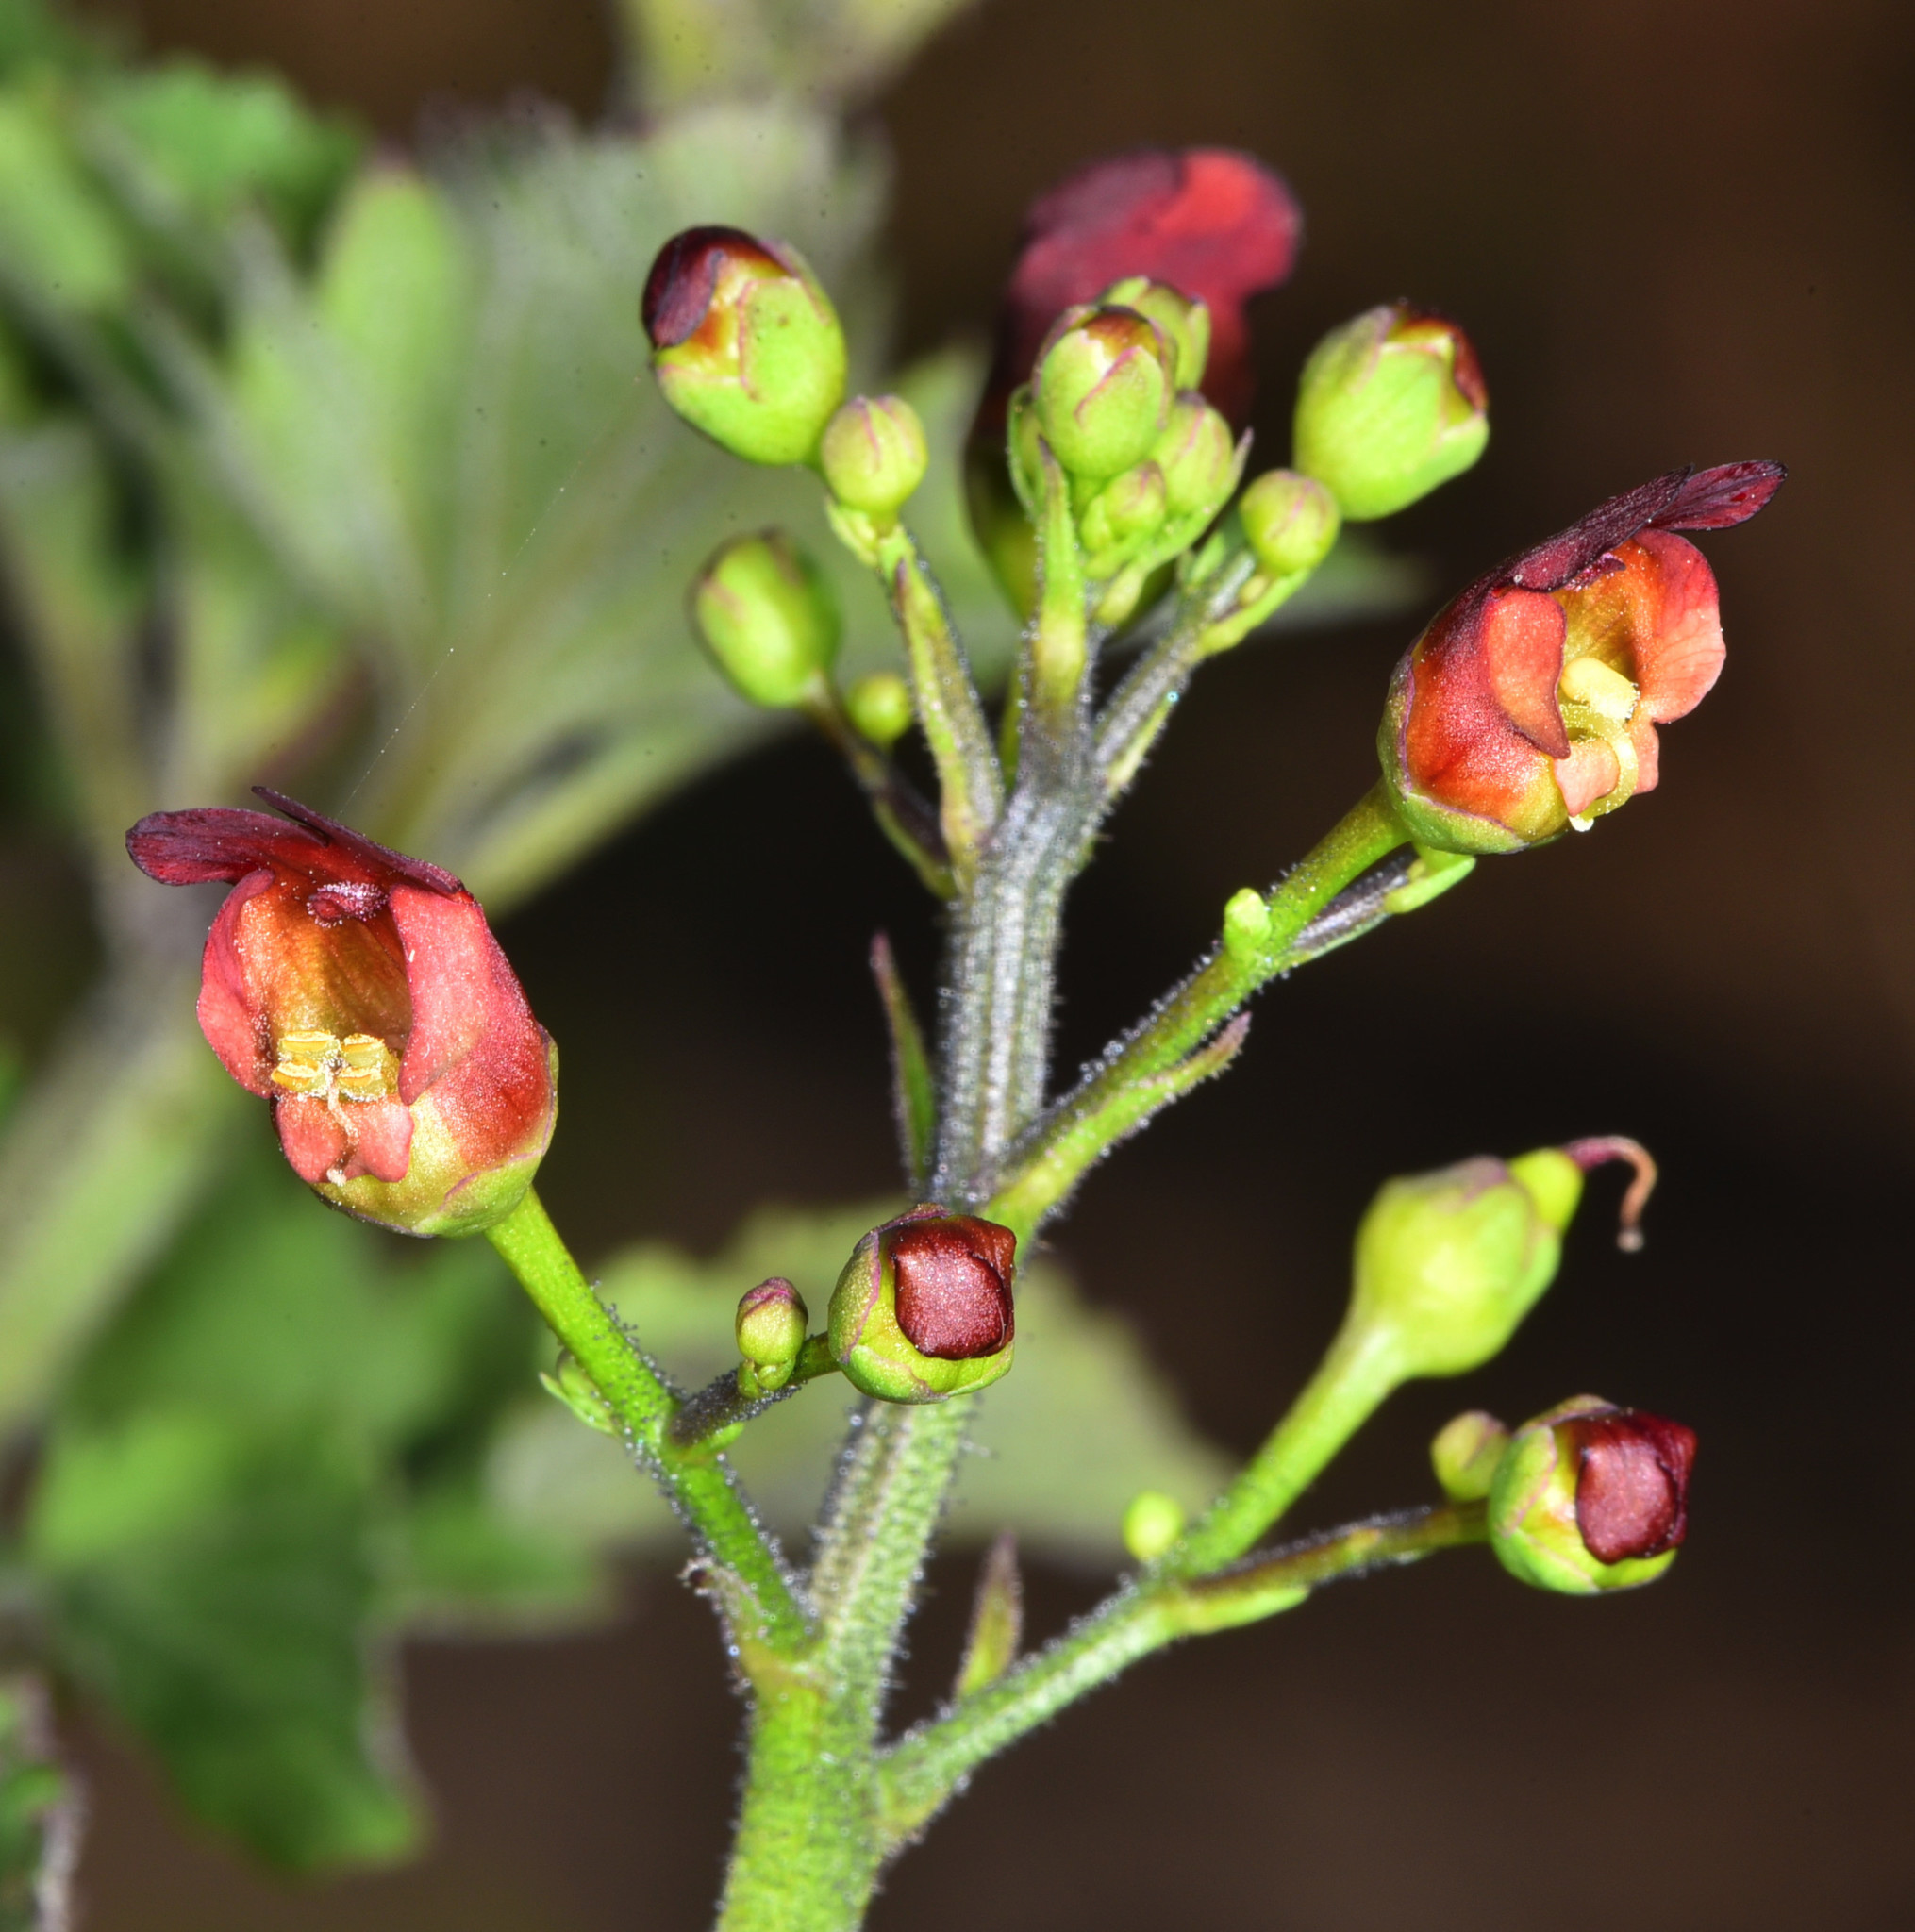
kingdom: Plantae
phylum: Tracheophyta
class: Magnoliopsida
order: Lamiales
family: Scrophulariaceae
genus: Scrophularia
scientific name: Scrophularia californica
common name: California figwort
